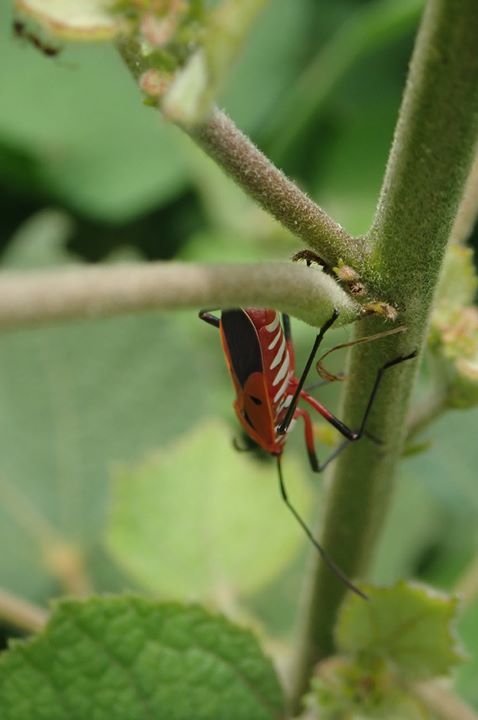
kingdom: Animalia
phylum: Arthropoda
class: Insecta
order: Hemiptera
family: Pyrrhocoridae
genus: Dysdercus
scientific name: Dysdercus cingulatus
